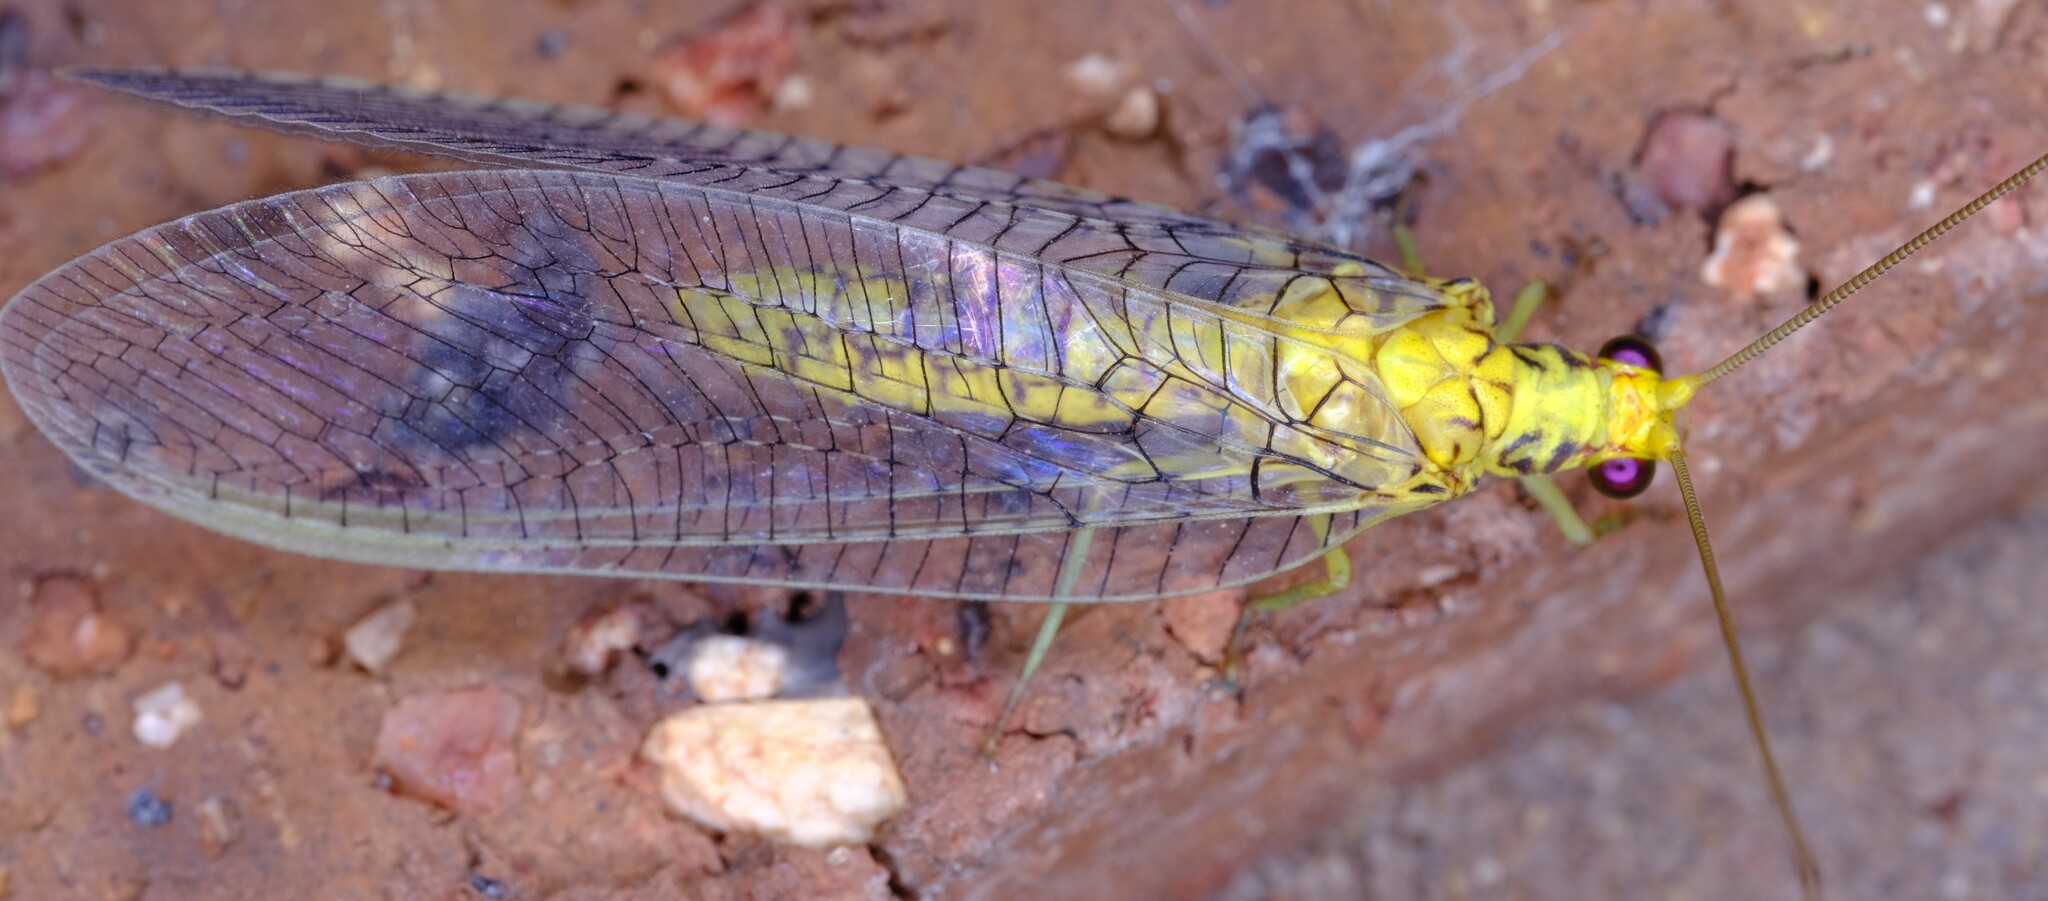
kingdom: Animalia
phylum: Arthropoda
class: Insecta
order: Neuroptera
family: Chrysopidae
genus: Italochrysa
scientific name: Italochrysa insignis
